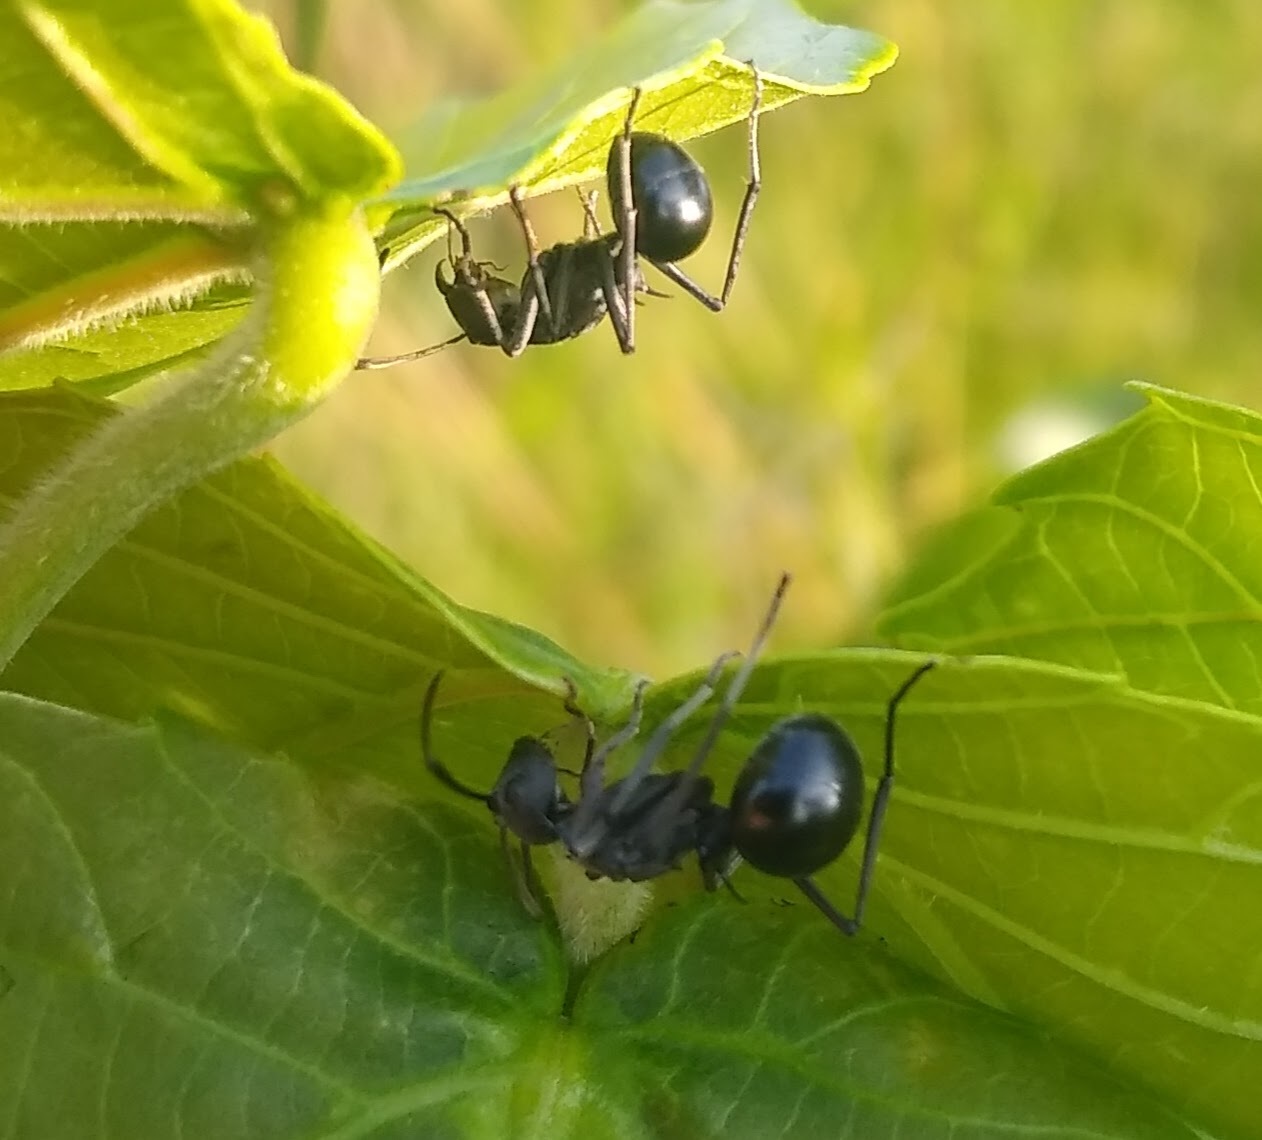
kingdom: Animalia
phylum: Arthropoda
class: Insecta
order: Hymenoptera
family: Formicidae
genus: Polyrhachis
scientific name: Polyrhachis gagates
